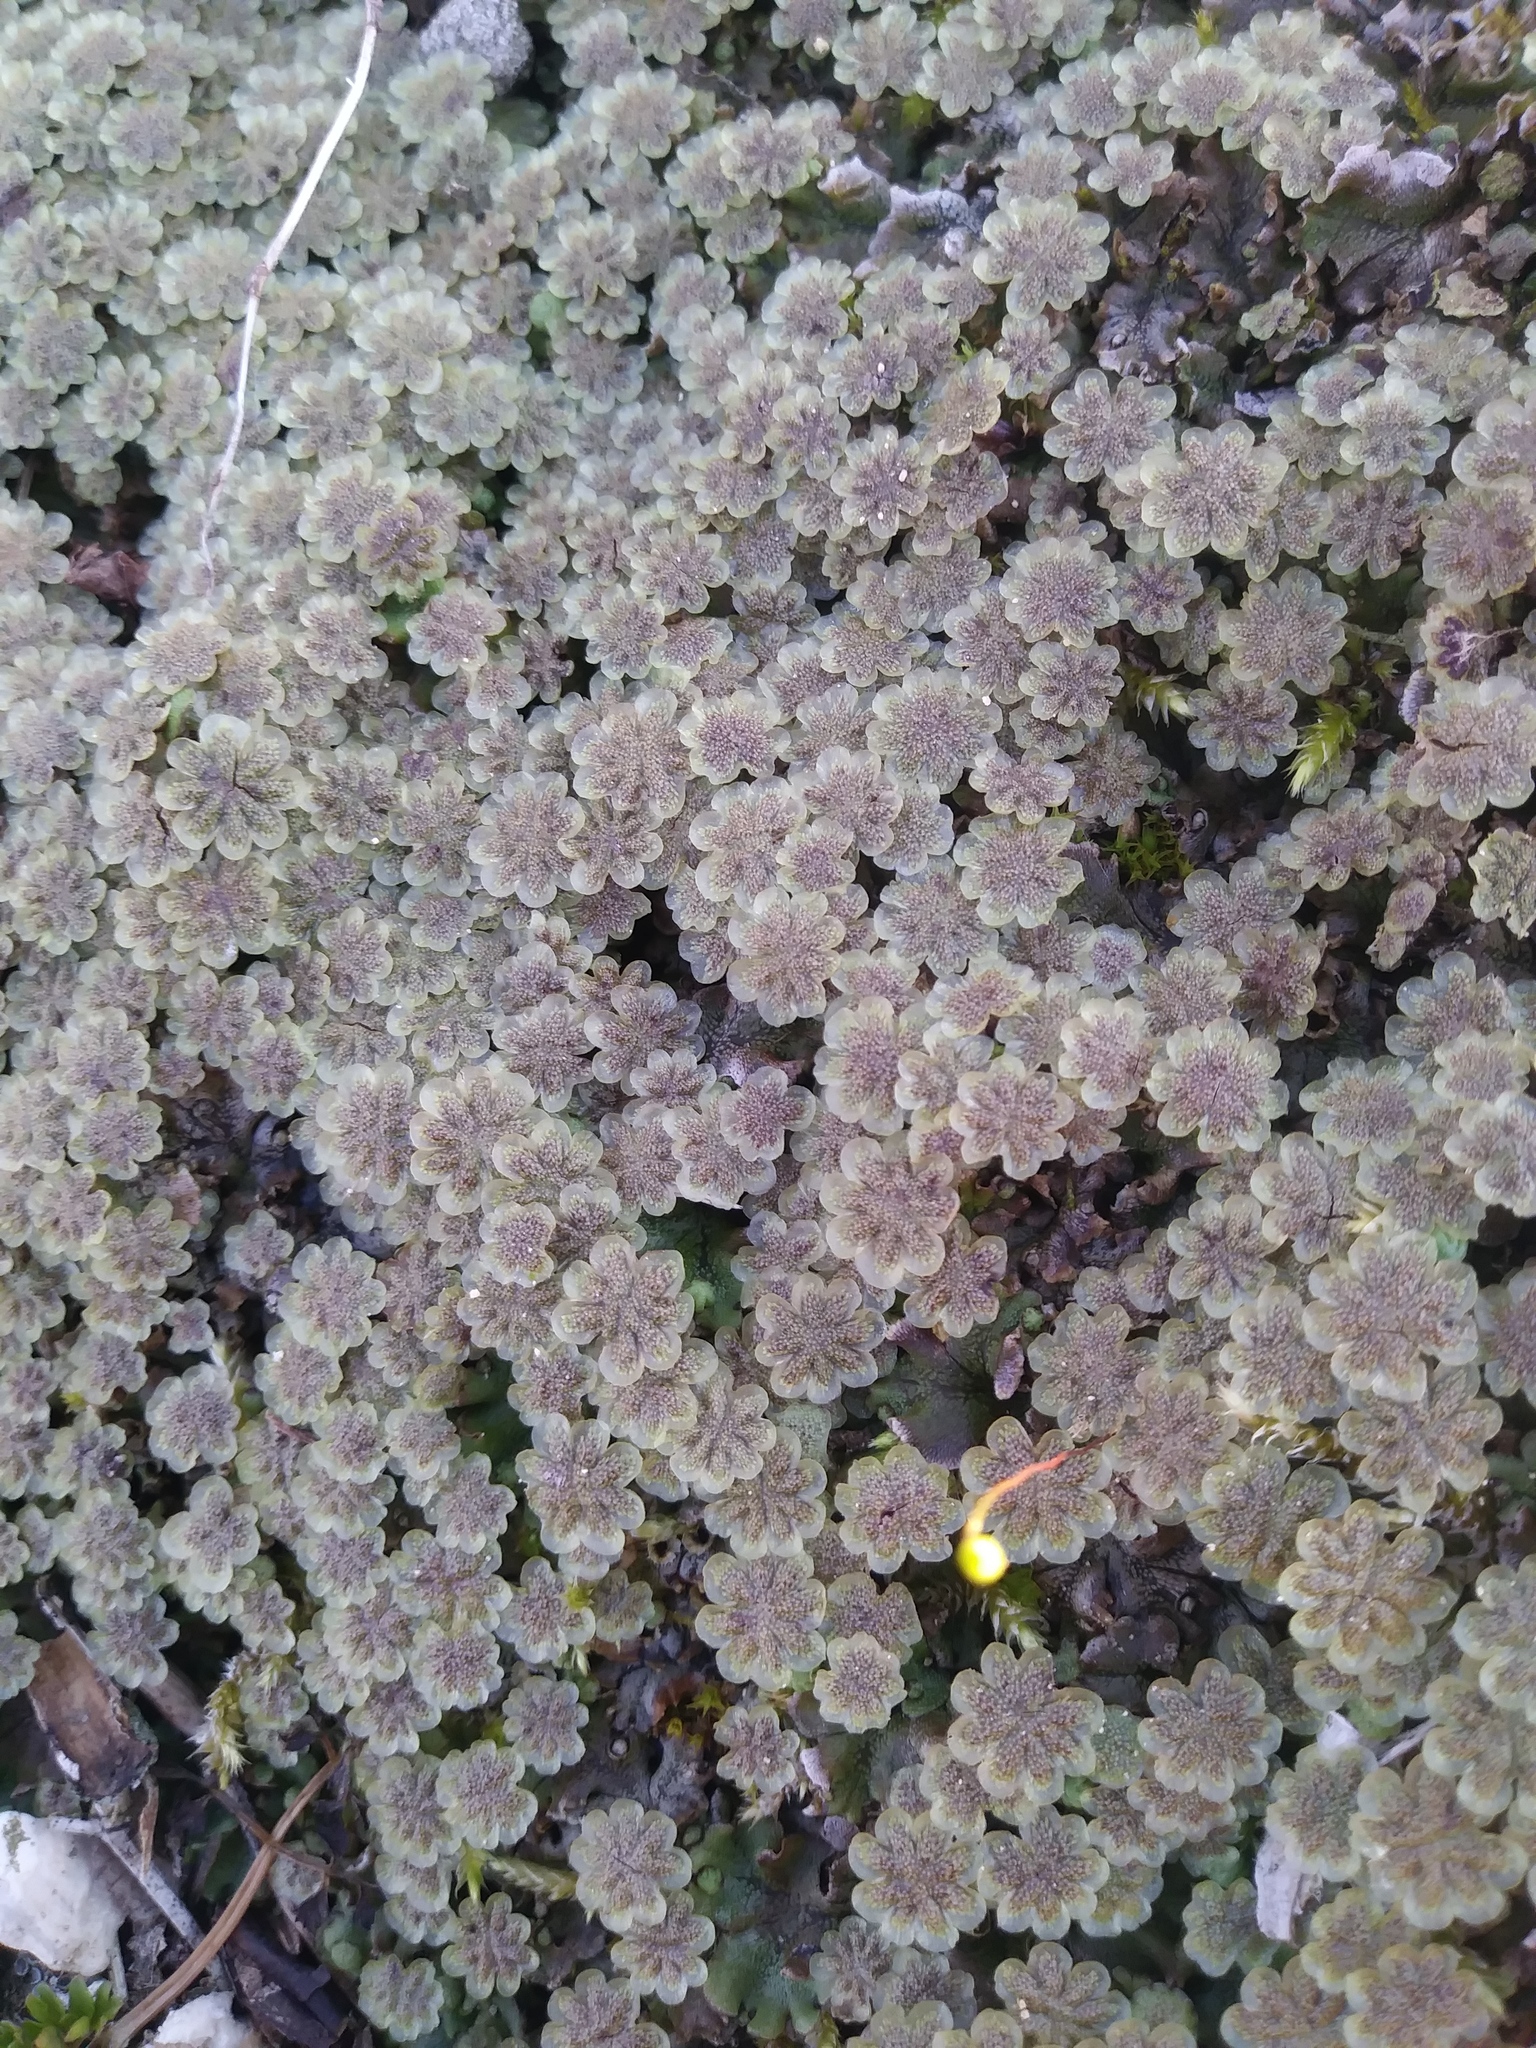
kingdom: Plantae
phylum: Marchantiophyta
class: Marchantiopsida
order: Marchantiales
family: Marchantiaceae
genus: Marchantia
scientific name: Marchantia polymorpha
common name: Common liverwort
